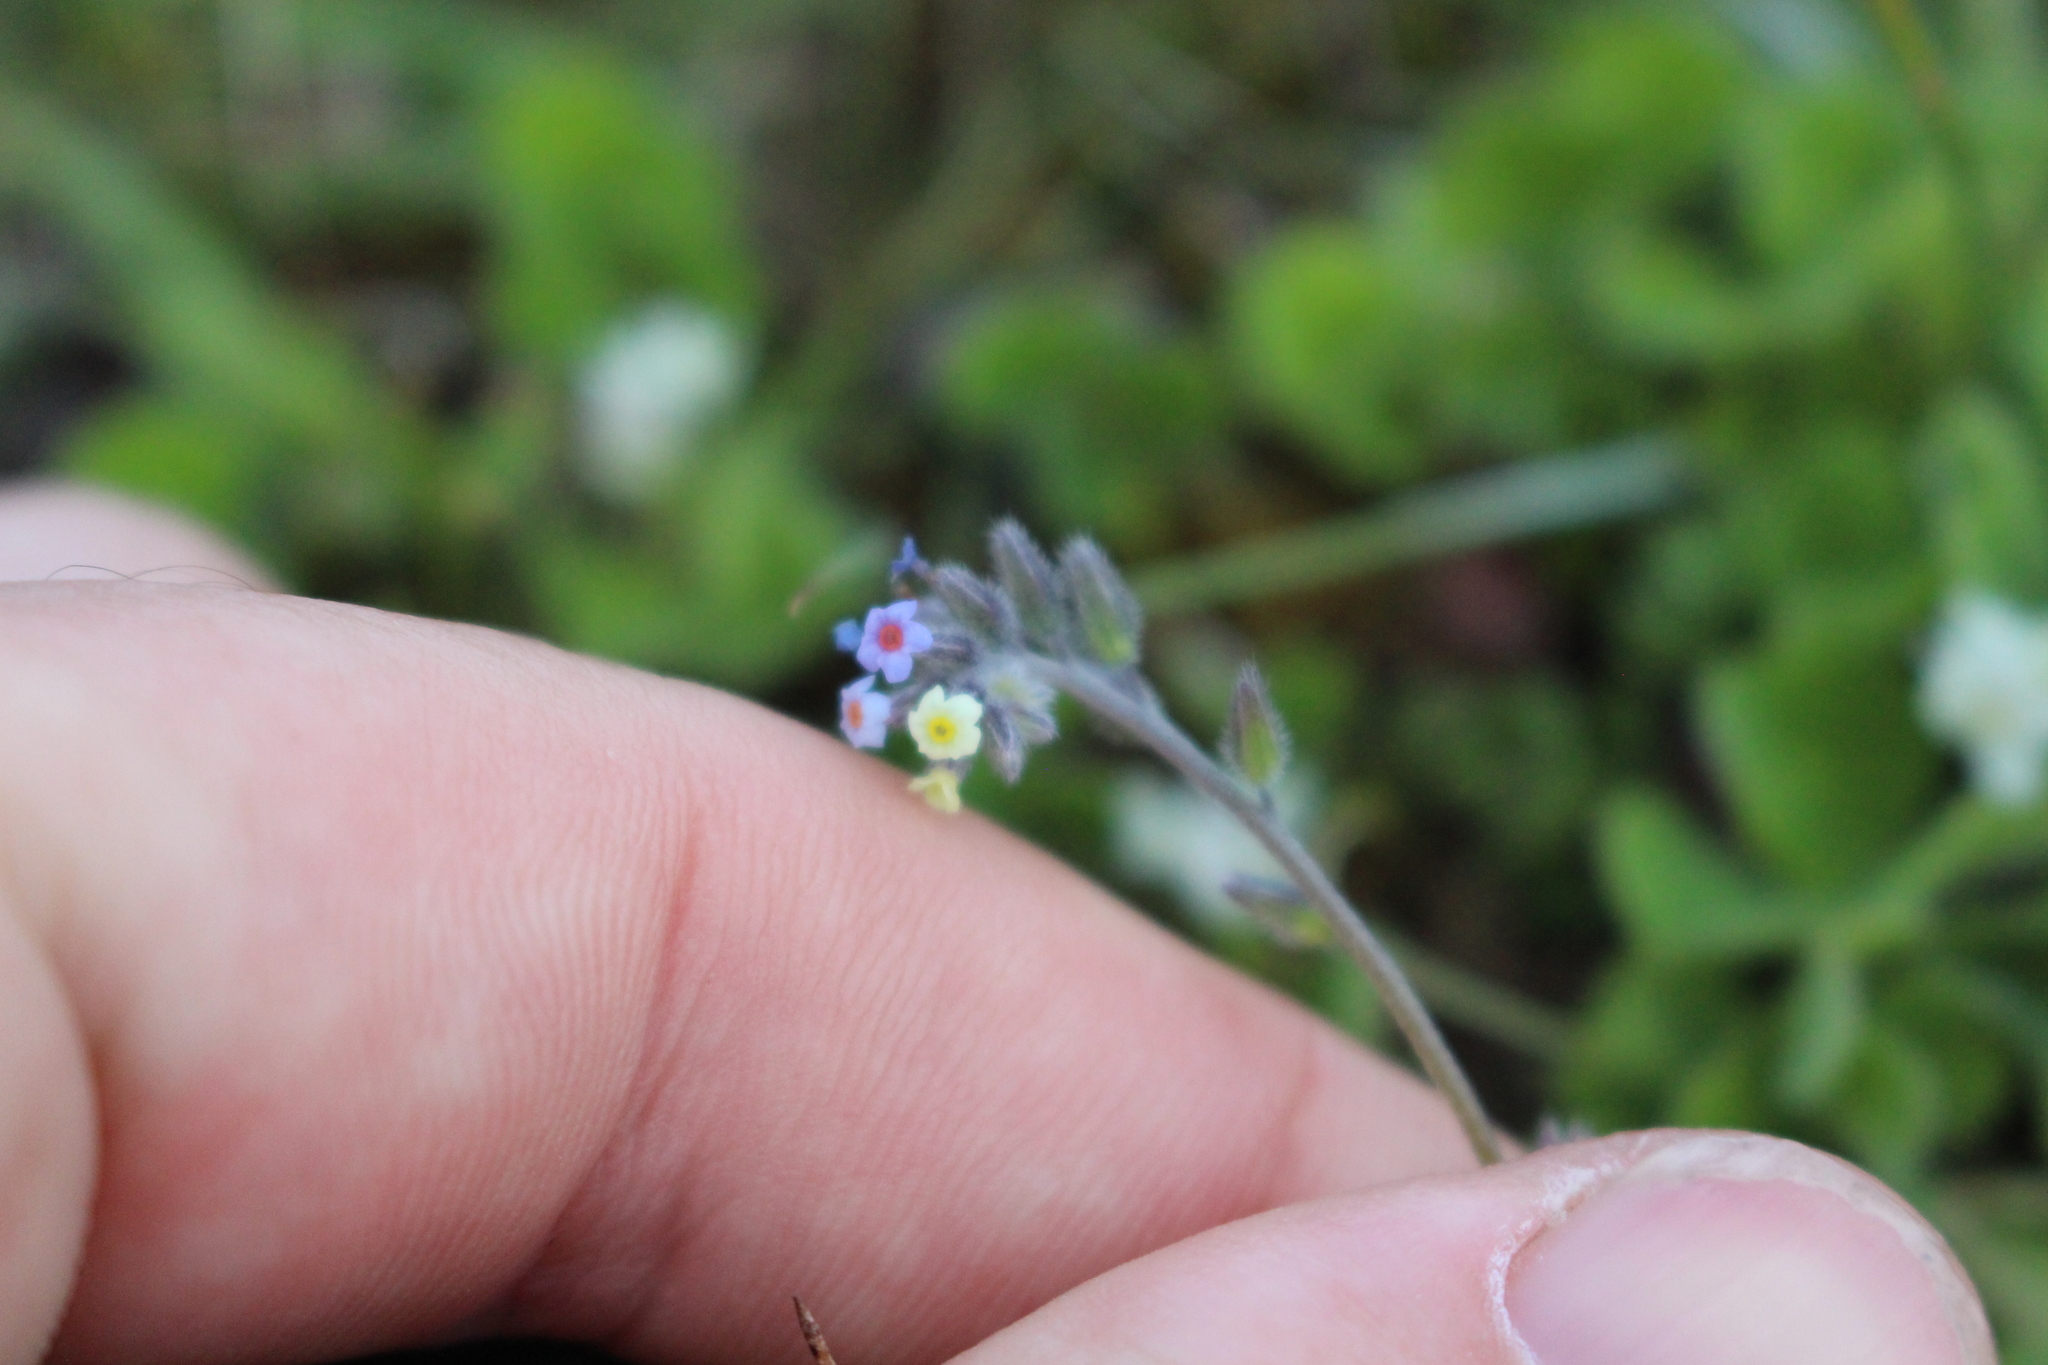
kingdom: Plantae
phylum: Tracheophyta
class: Magnoliopsida
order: Boraginales
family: Boraginaceae
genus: Myosotis
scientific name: Myosotis discolor
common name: Changing forget-me-not
